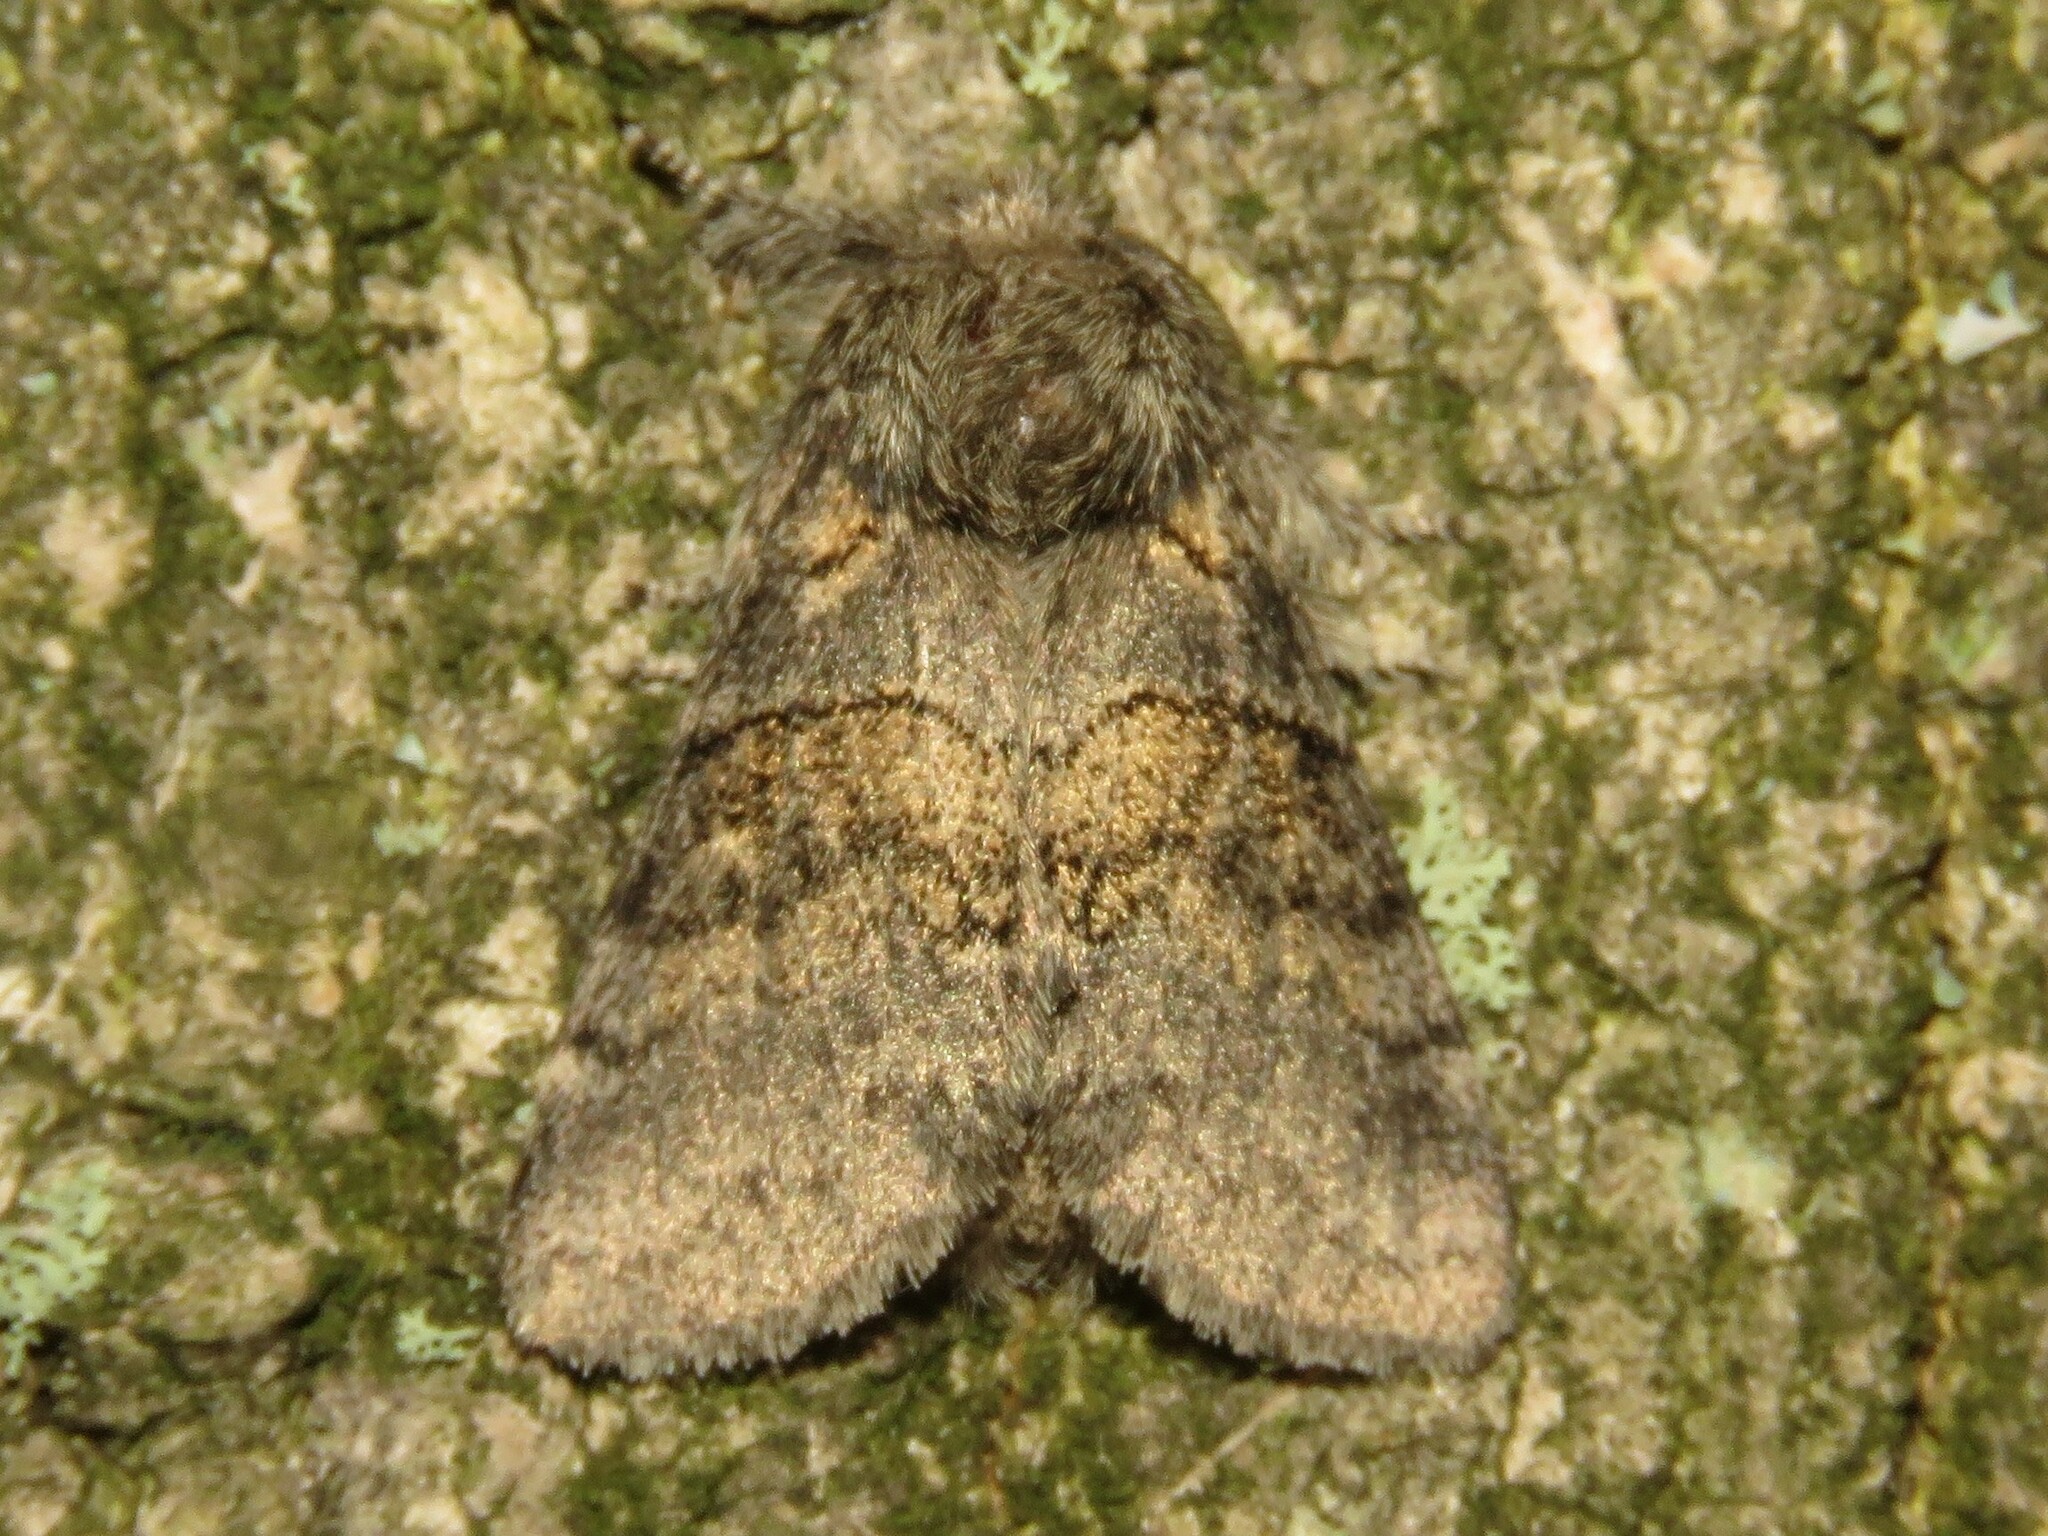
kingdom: Animalia
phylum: Arthropoda
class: Insecta
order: Lepidoptera
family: Notodontidae
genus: Gluphisia
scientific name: Gluphisia septentrionis
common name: Common gluphisia
